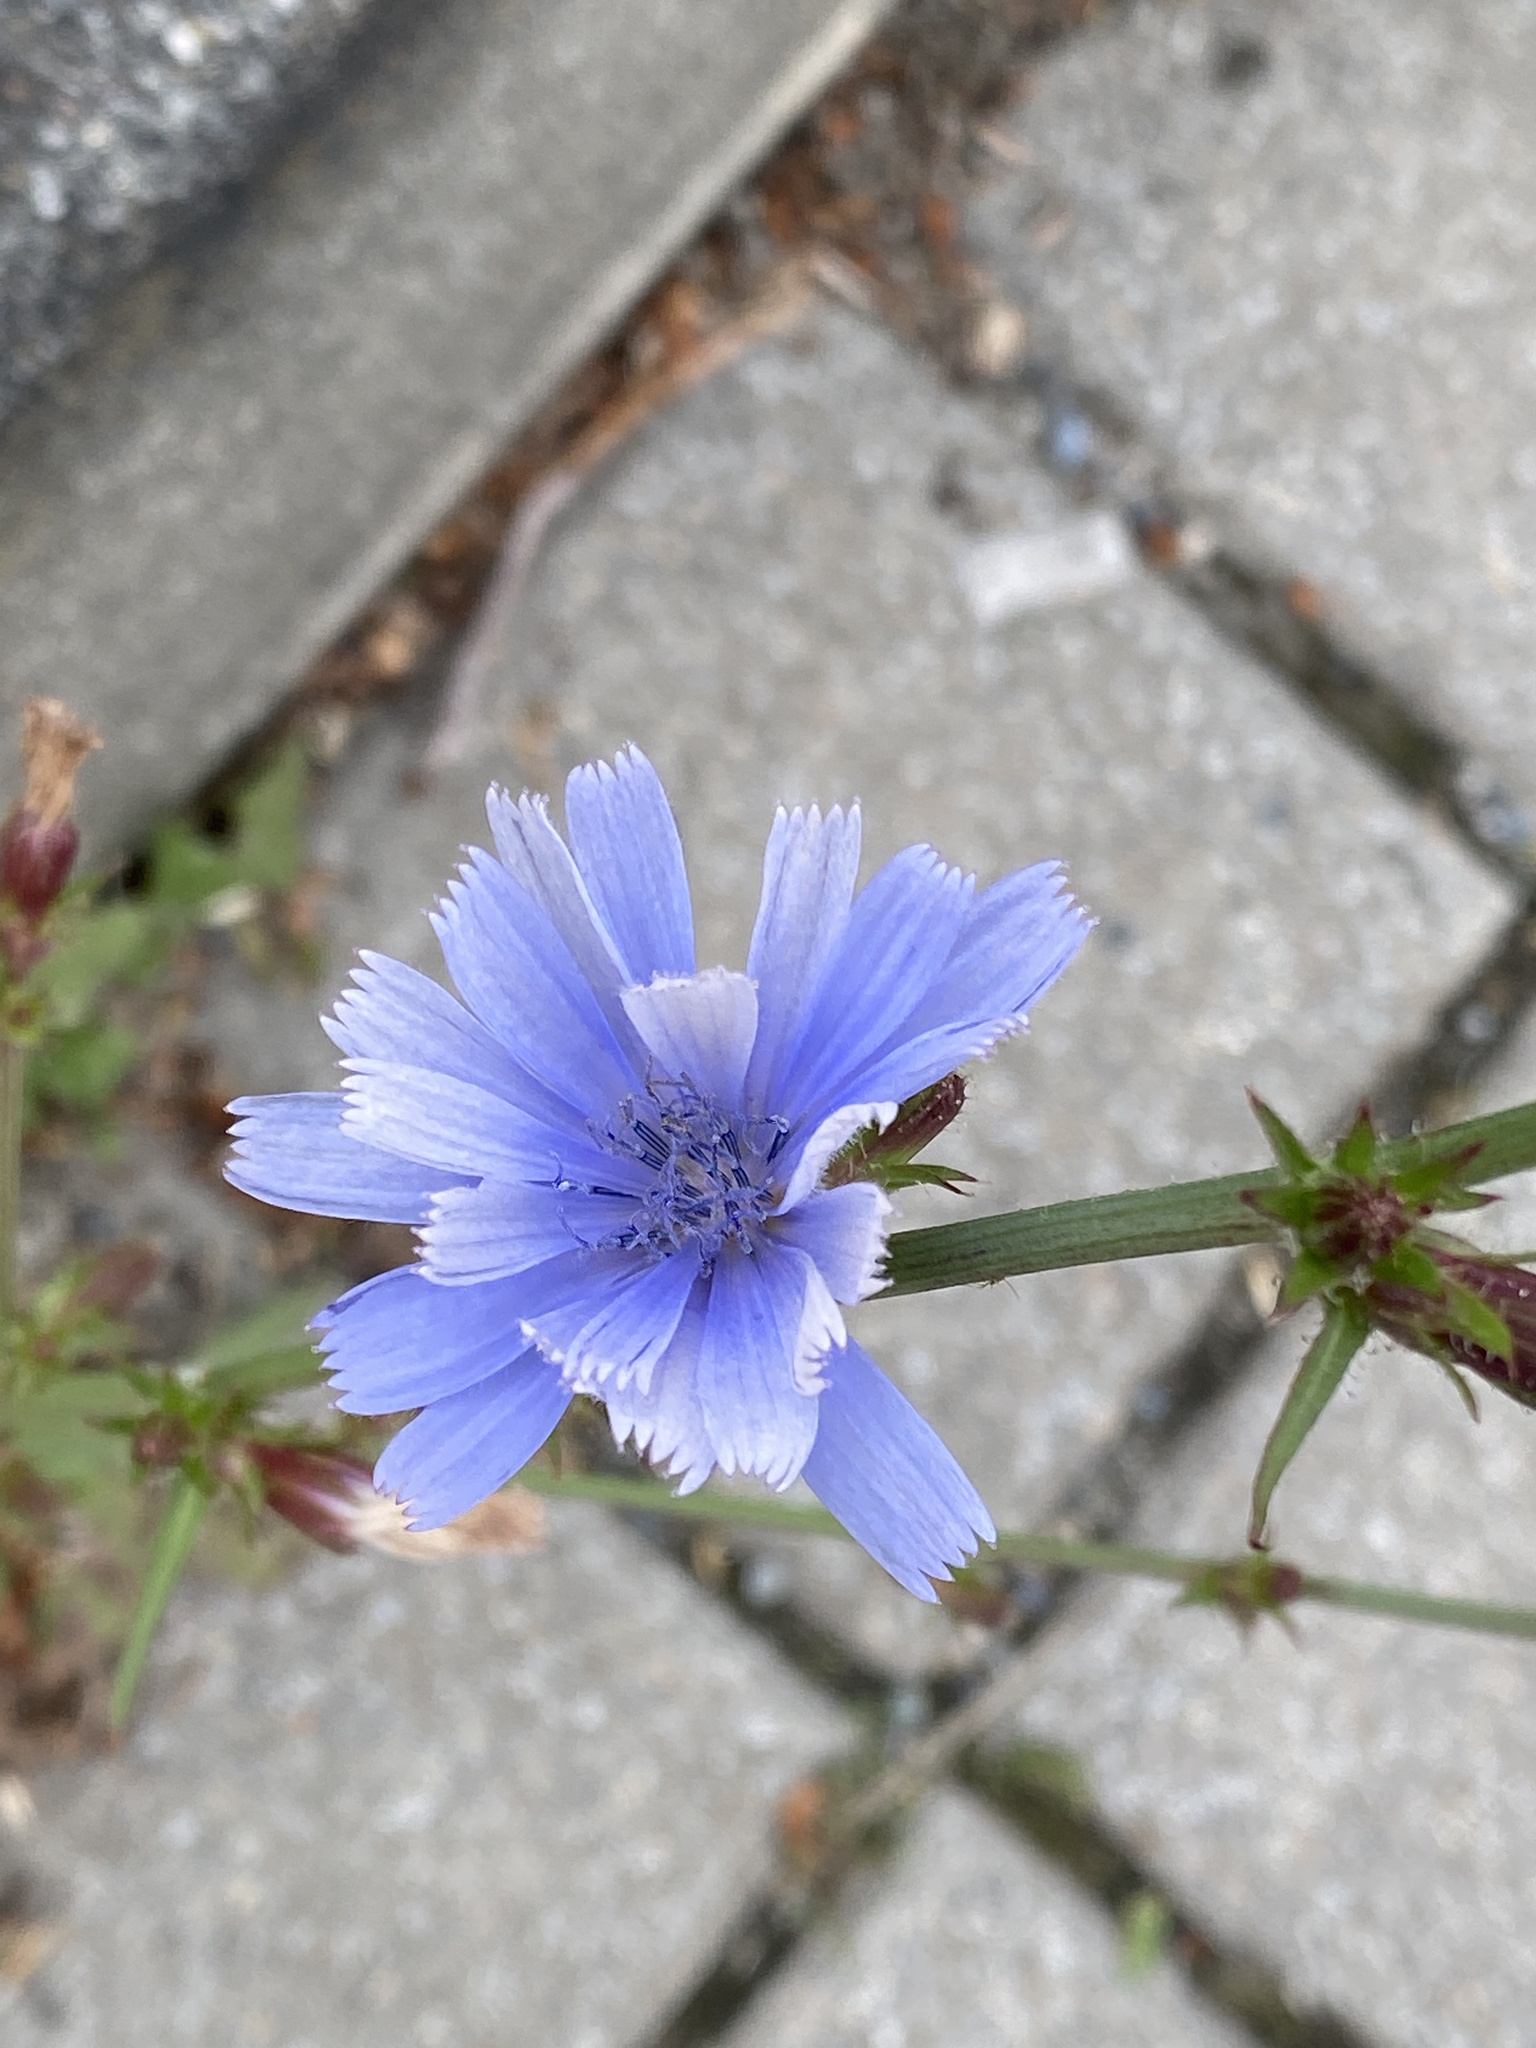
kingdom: Plantae
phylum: Tracheophyta
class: Magnoliopsida
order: Asterales
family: Asteraceae
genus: Cichorium
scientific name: Cichorium intybus
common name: Chicory
